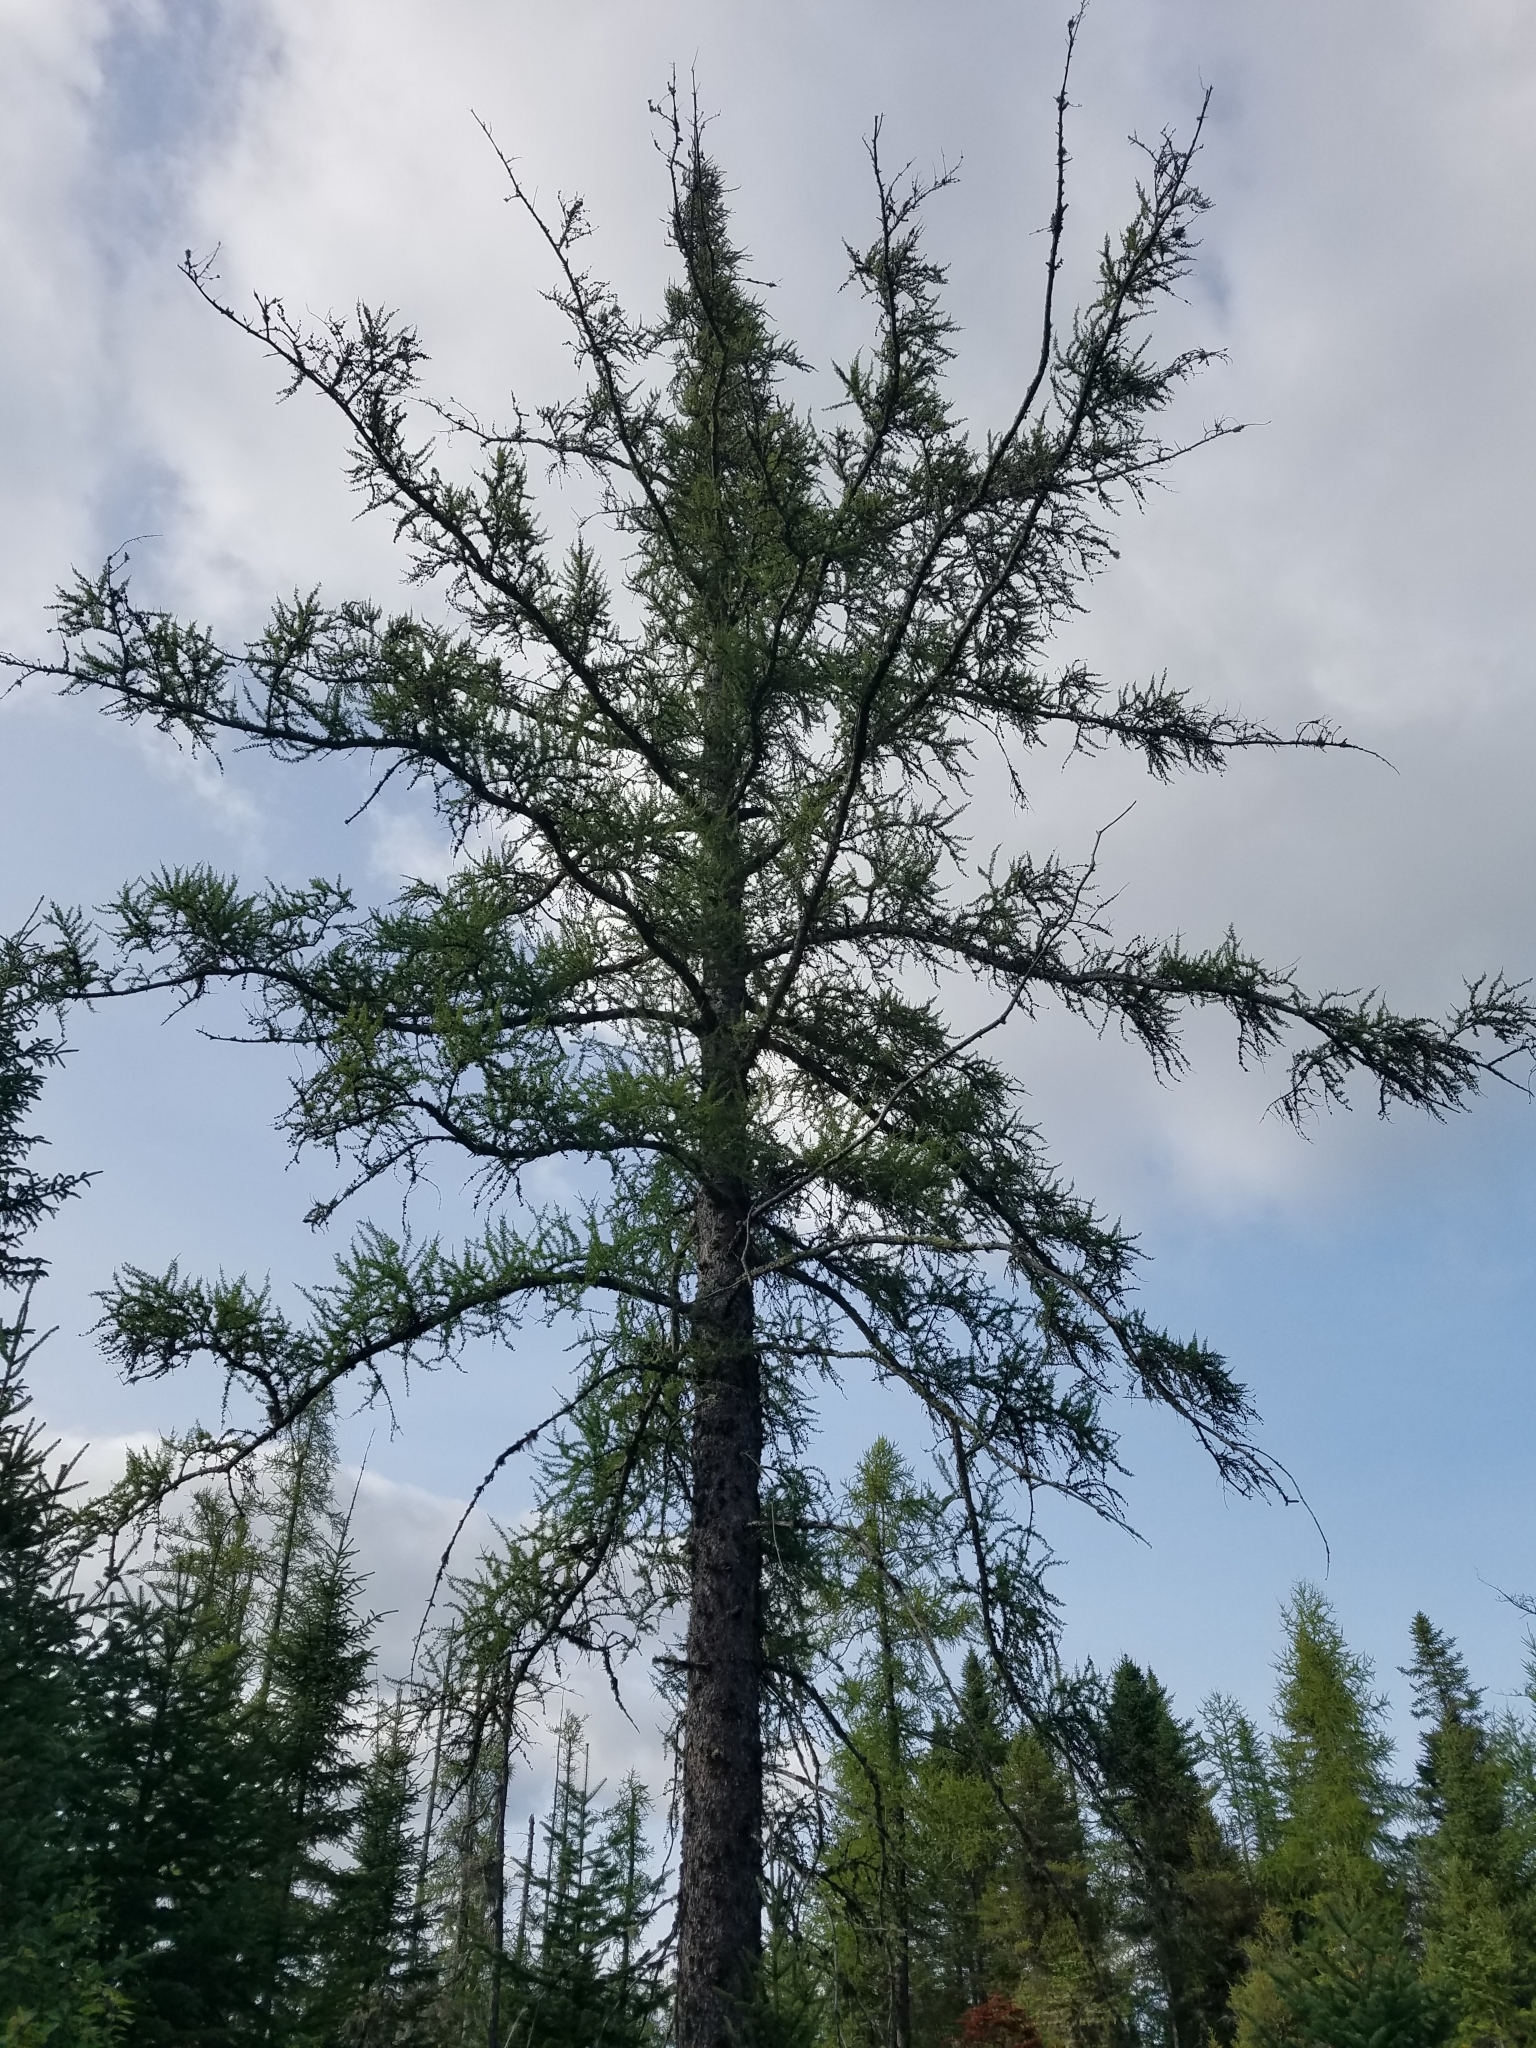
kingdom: Plantae
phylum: Tracheophyta
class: Pinopsida
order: Pinales
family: Pinaceae
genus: Larix
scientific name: Larix laricina
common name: American larch
